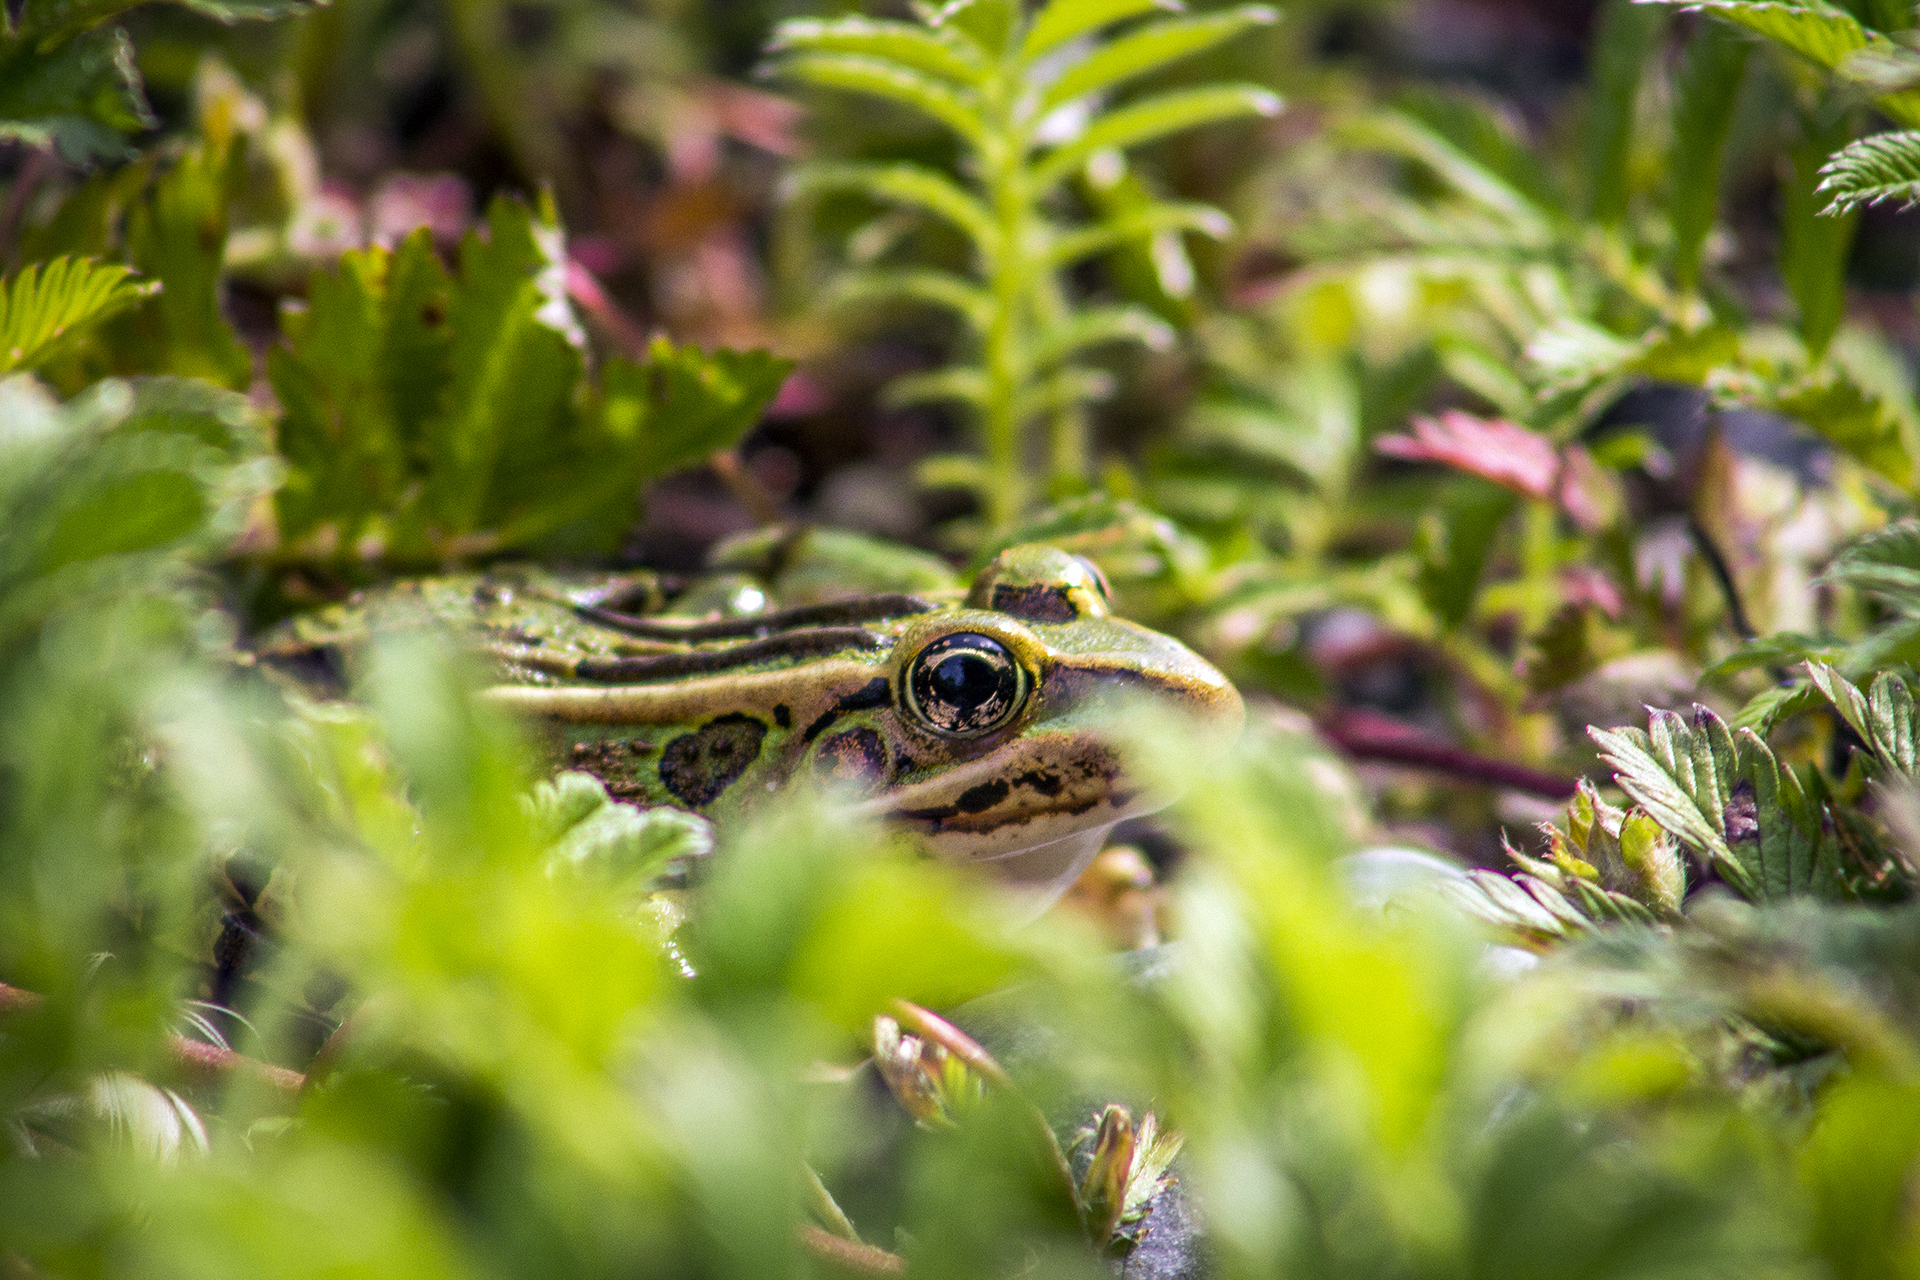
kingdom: Animalia
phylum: Chordata
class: Amphibia
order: Anura
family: Ranidae
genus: Lithobates
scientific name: Lithobates pipiens
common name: Northern leopard frog
